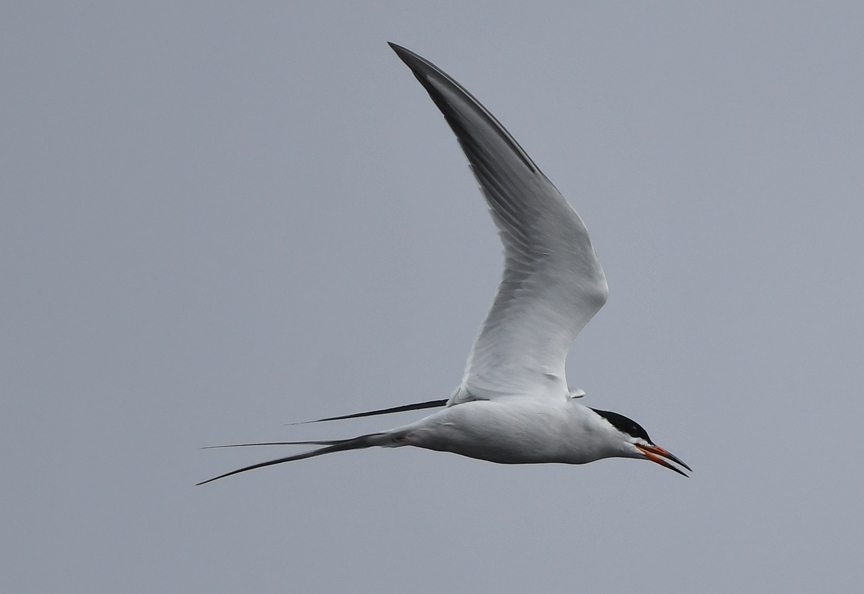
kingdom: Animalia
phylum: Chordata
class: Aves
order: Charadriiformes
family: Laridae
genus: Sterna
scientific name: Sterna forsteri
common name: Forster's tern
